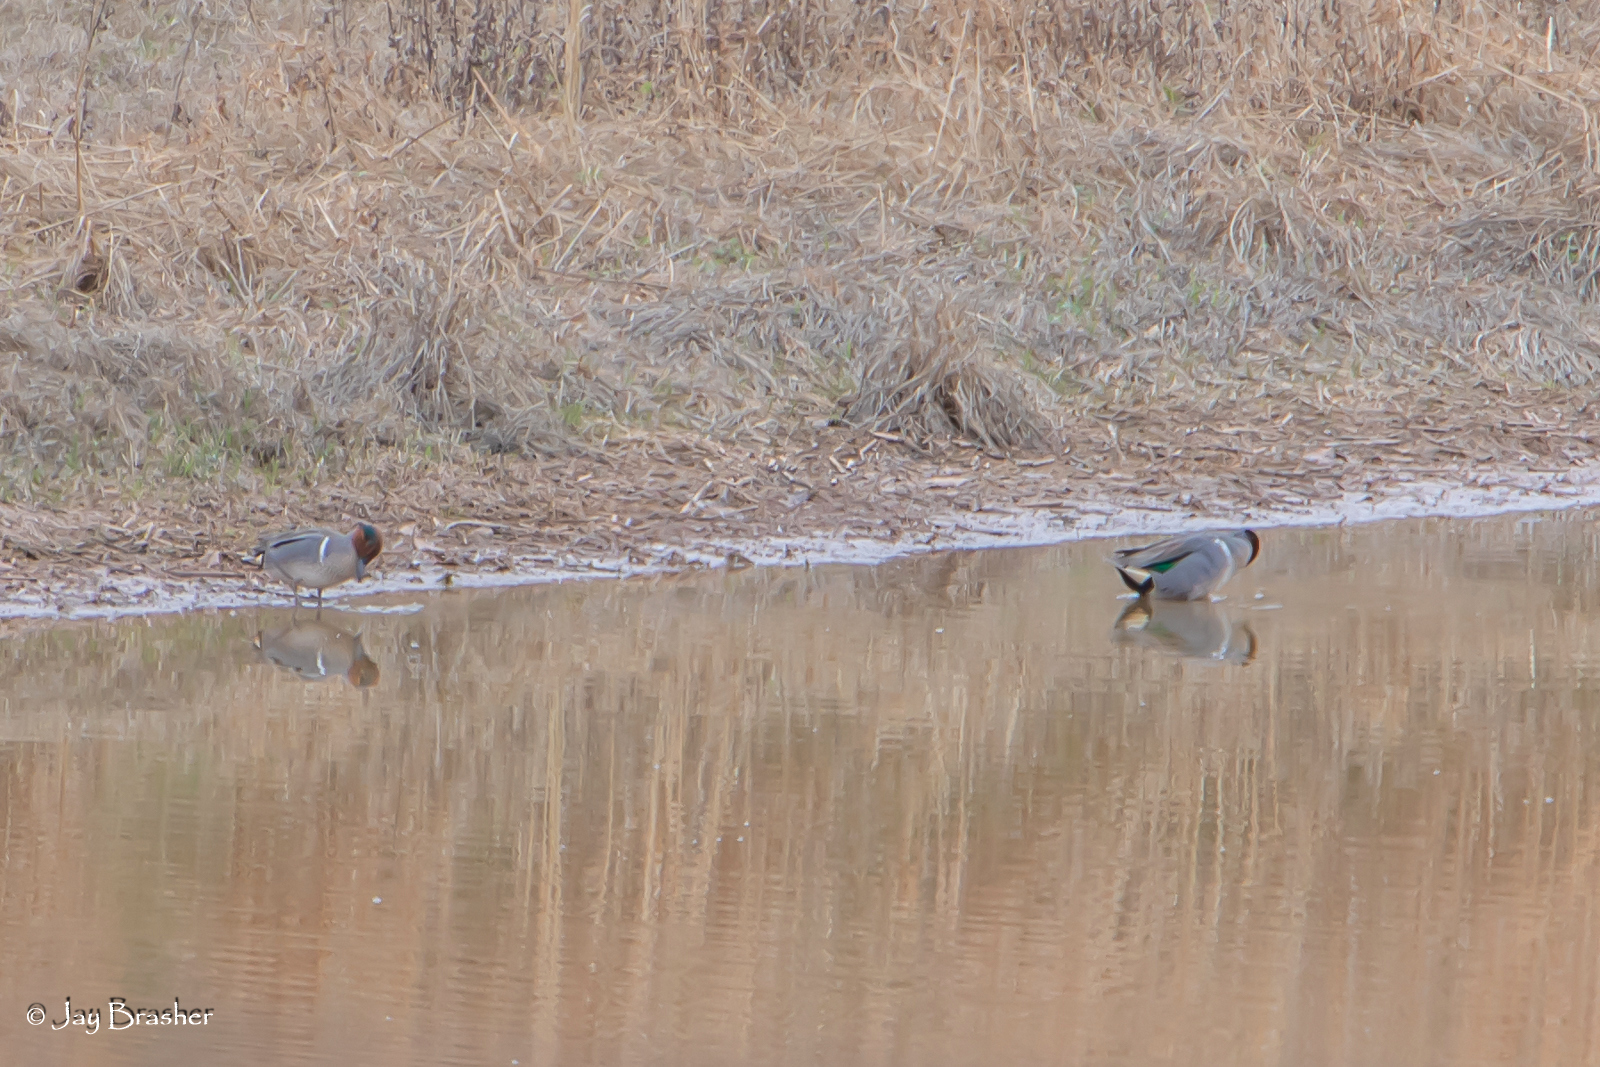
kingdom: Animalia
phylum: Chordata
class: Aves
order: Anseriformes
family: Anatidae
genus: Anas
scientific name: Anas crecca
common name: Eurasian teal
